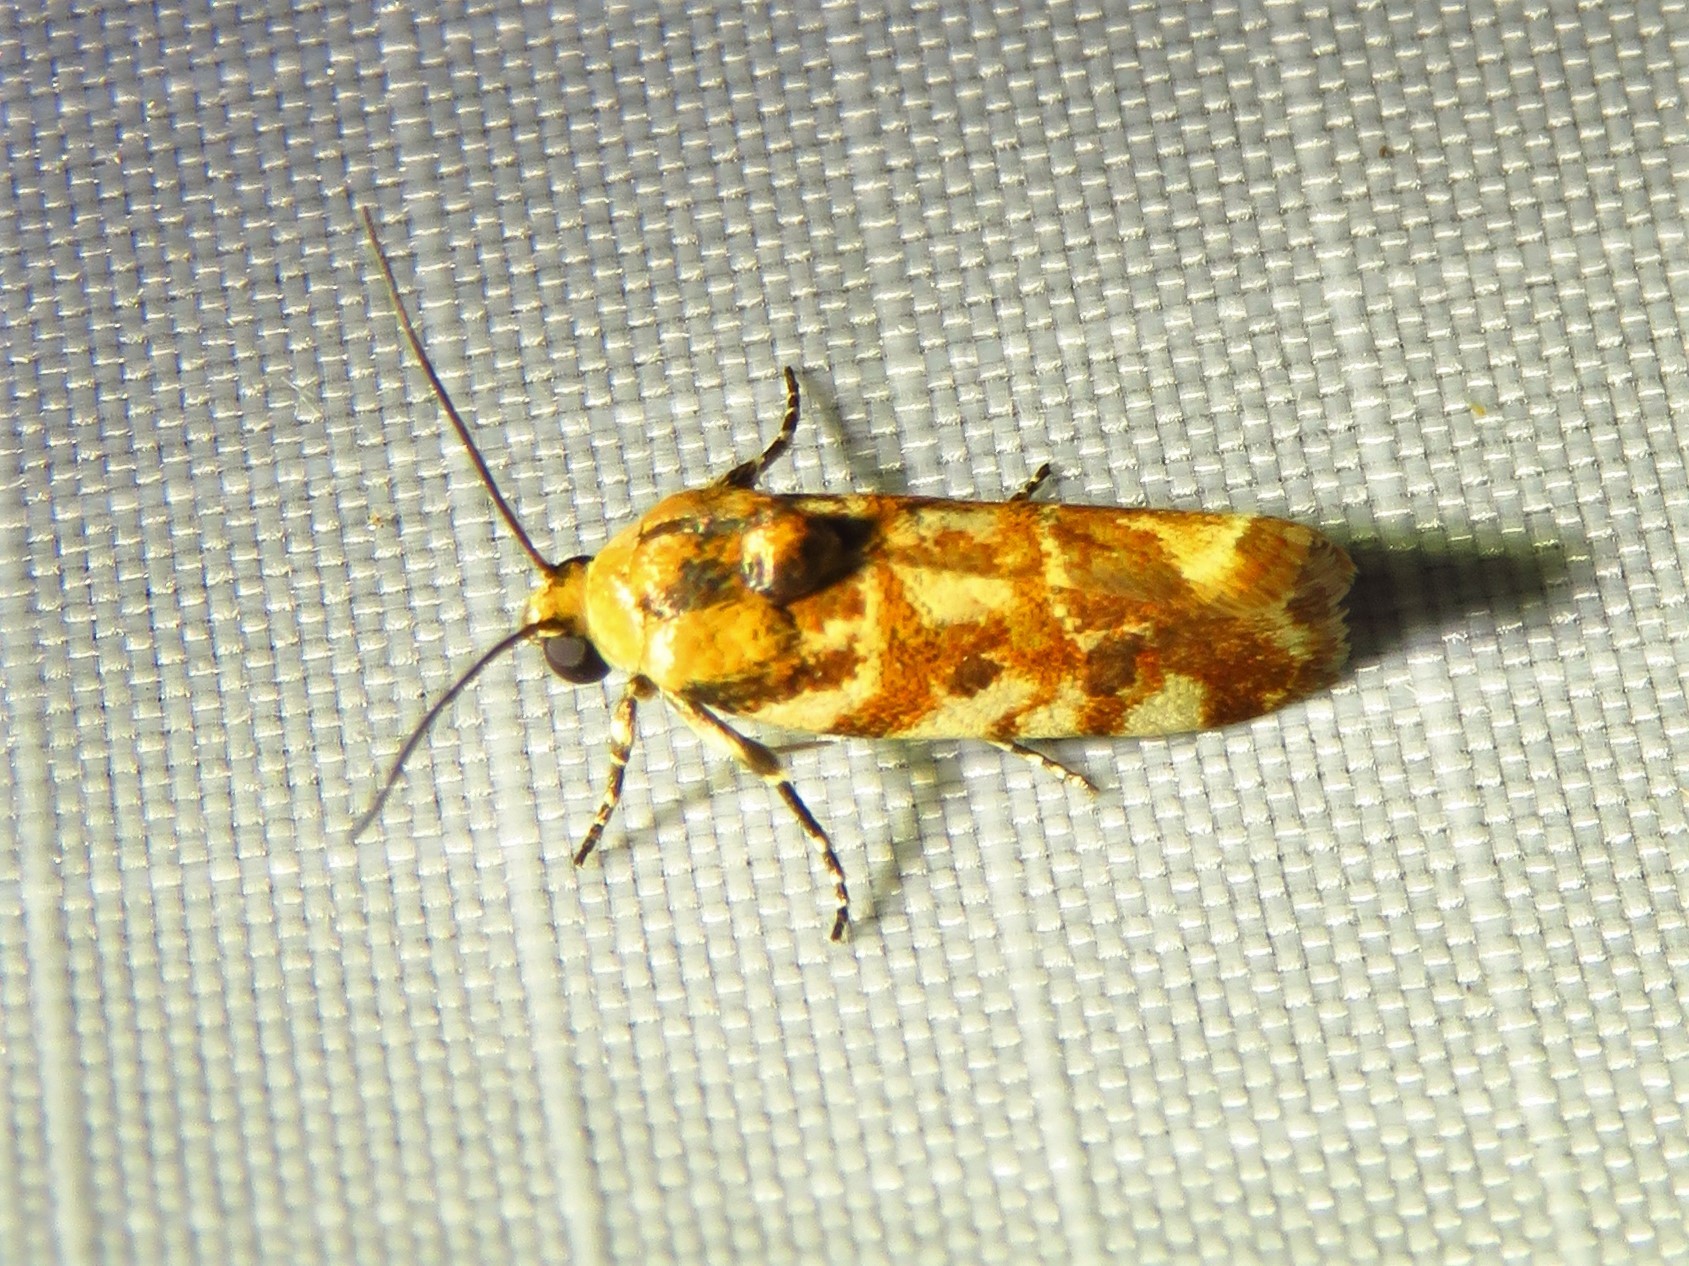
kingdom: Animalia
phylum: Arthropoda
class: Insecta
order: Lepidoptera
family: Noctuidae
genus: Spragueia
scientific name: Spragueia jaguaralis
